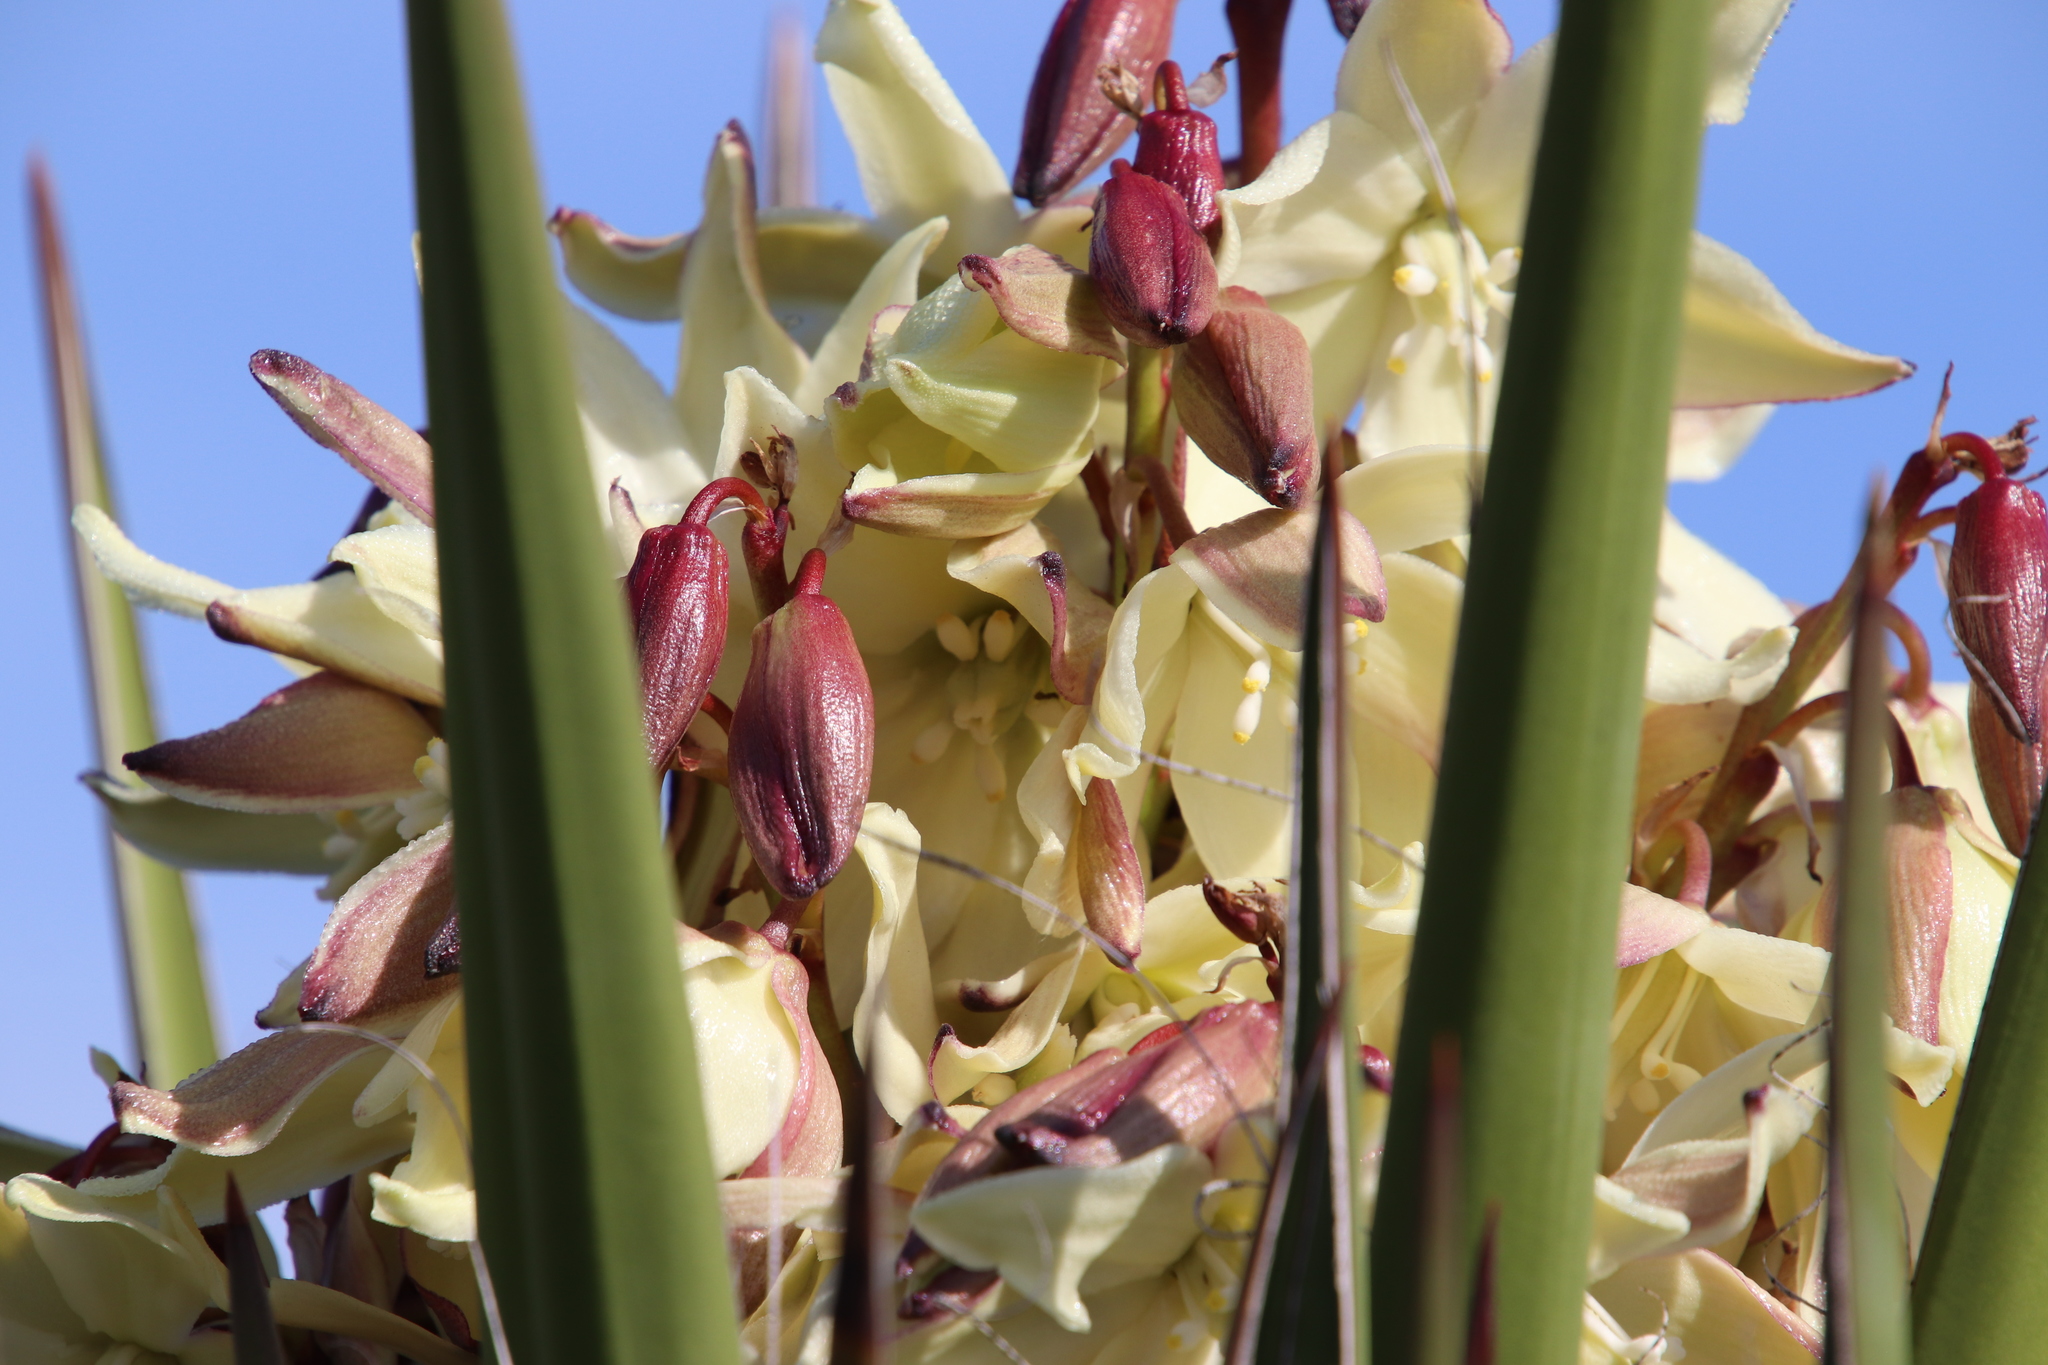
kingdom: Plantae
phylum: Tracheophyta
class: Liliopsida
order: Asparagales
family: Asparagaceae
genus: Yucca
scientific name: Yucca schidigera
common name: Mojave yucca
